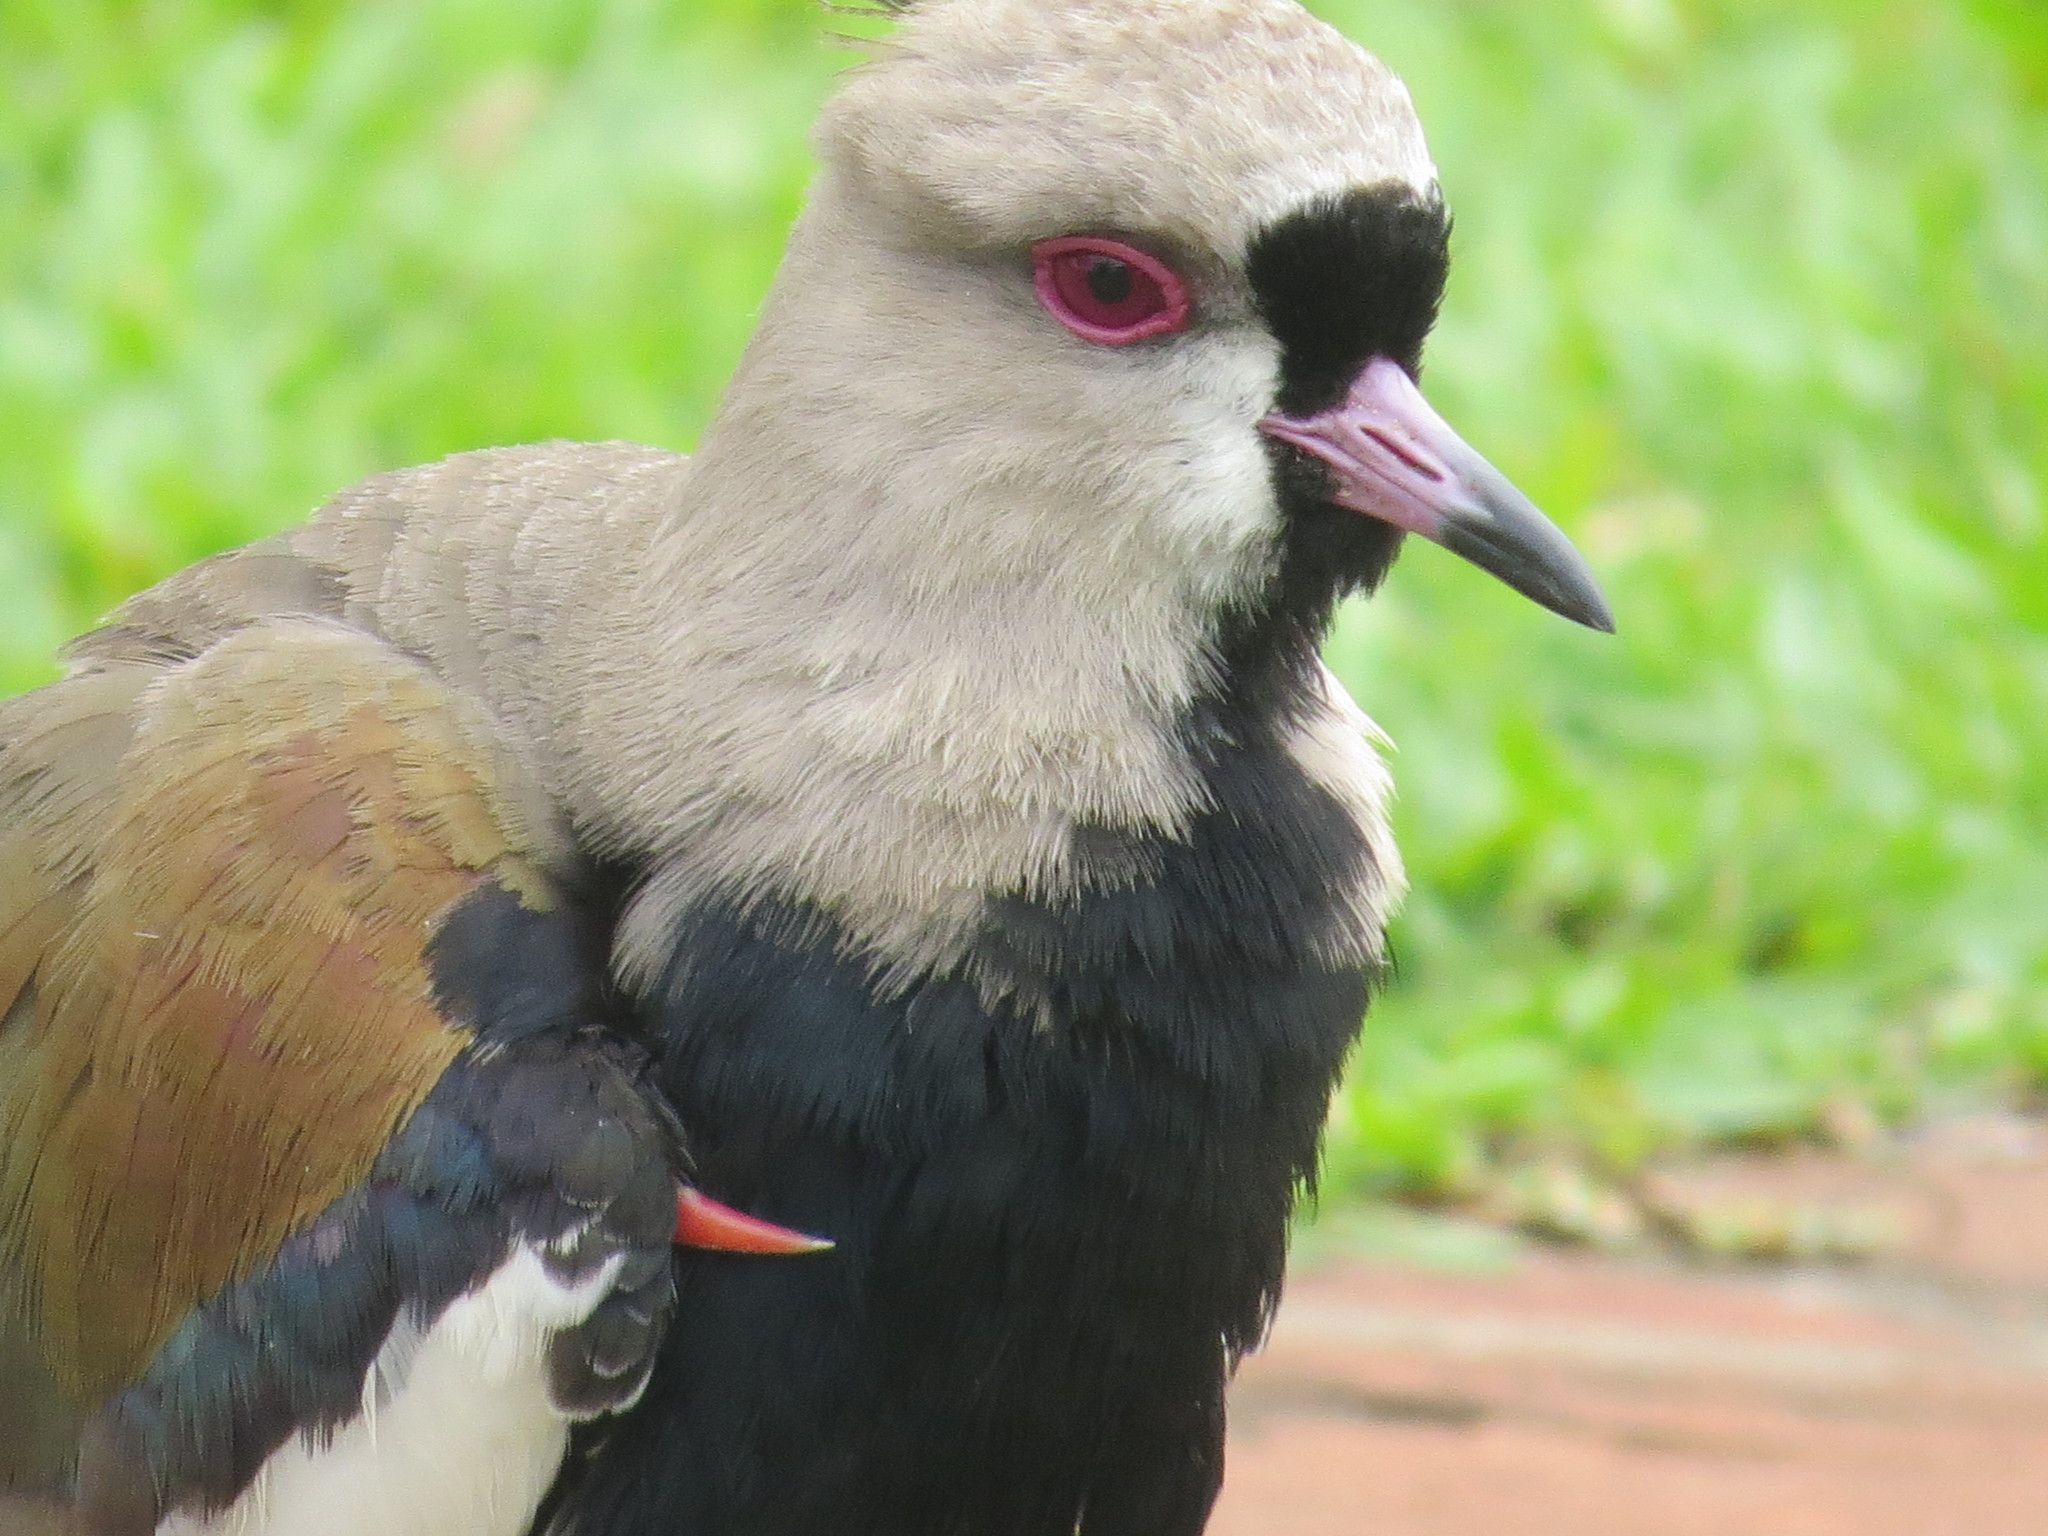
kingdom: Animalia
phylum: Chordata
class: Aves
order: Charadriiformes
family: Charadriidae
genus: Vanellus
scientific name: Vanellus chilensis
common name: Southern lapwing
